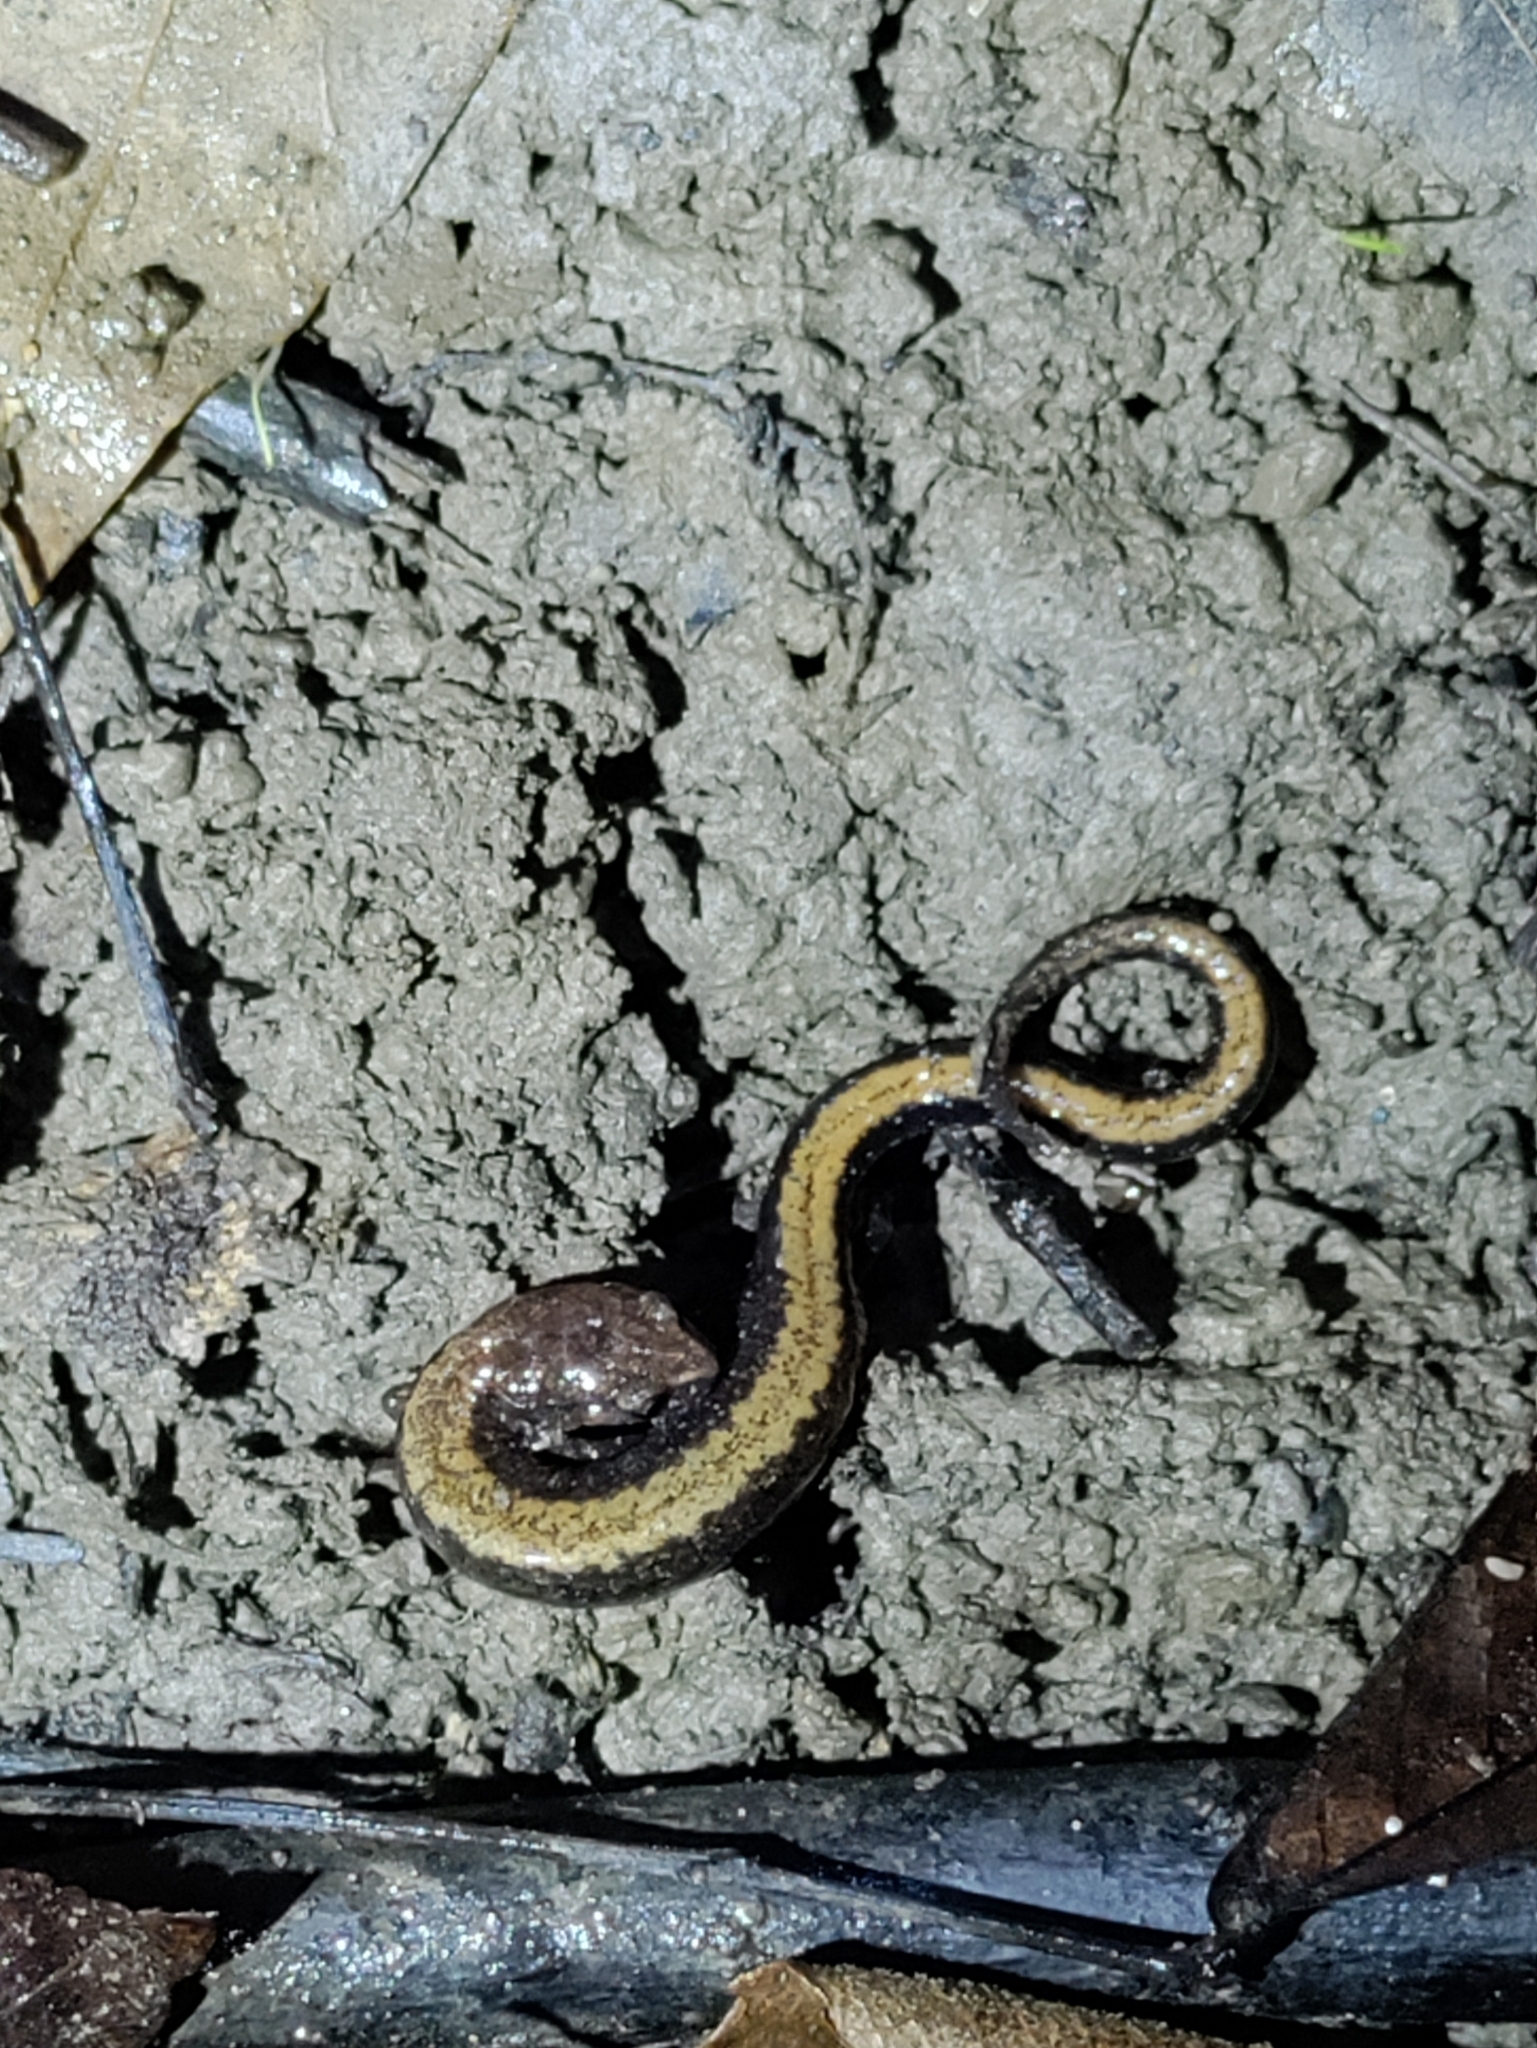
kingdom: Animalia
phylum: Chordata
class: Amphibia
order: Caudata
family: Plethodontidae
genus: Plethodon
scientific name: Plethodon serratus
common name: Southern red-backed salamander
